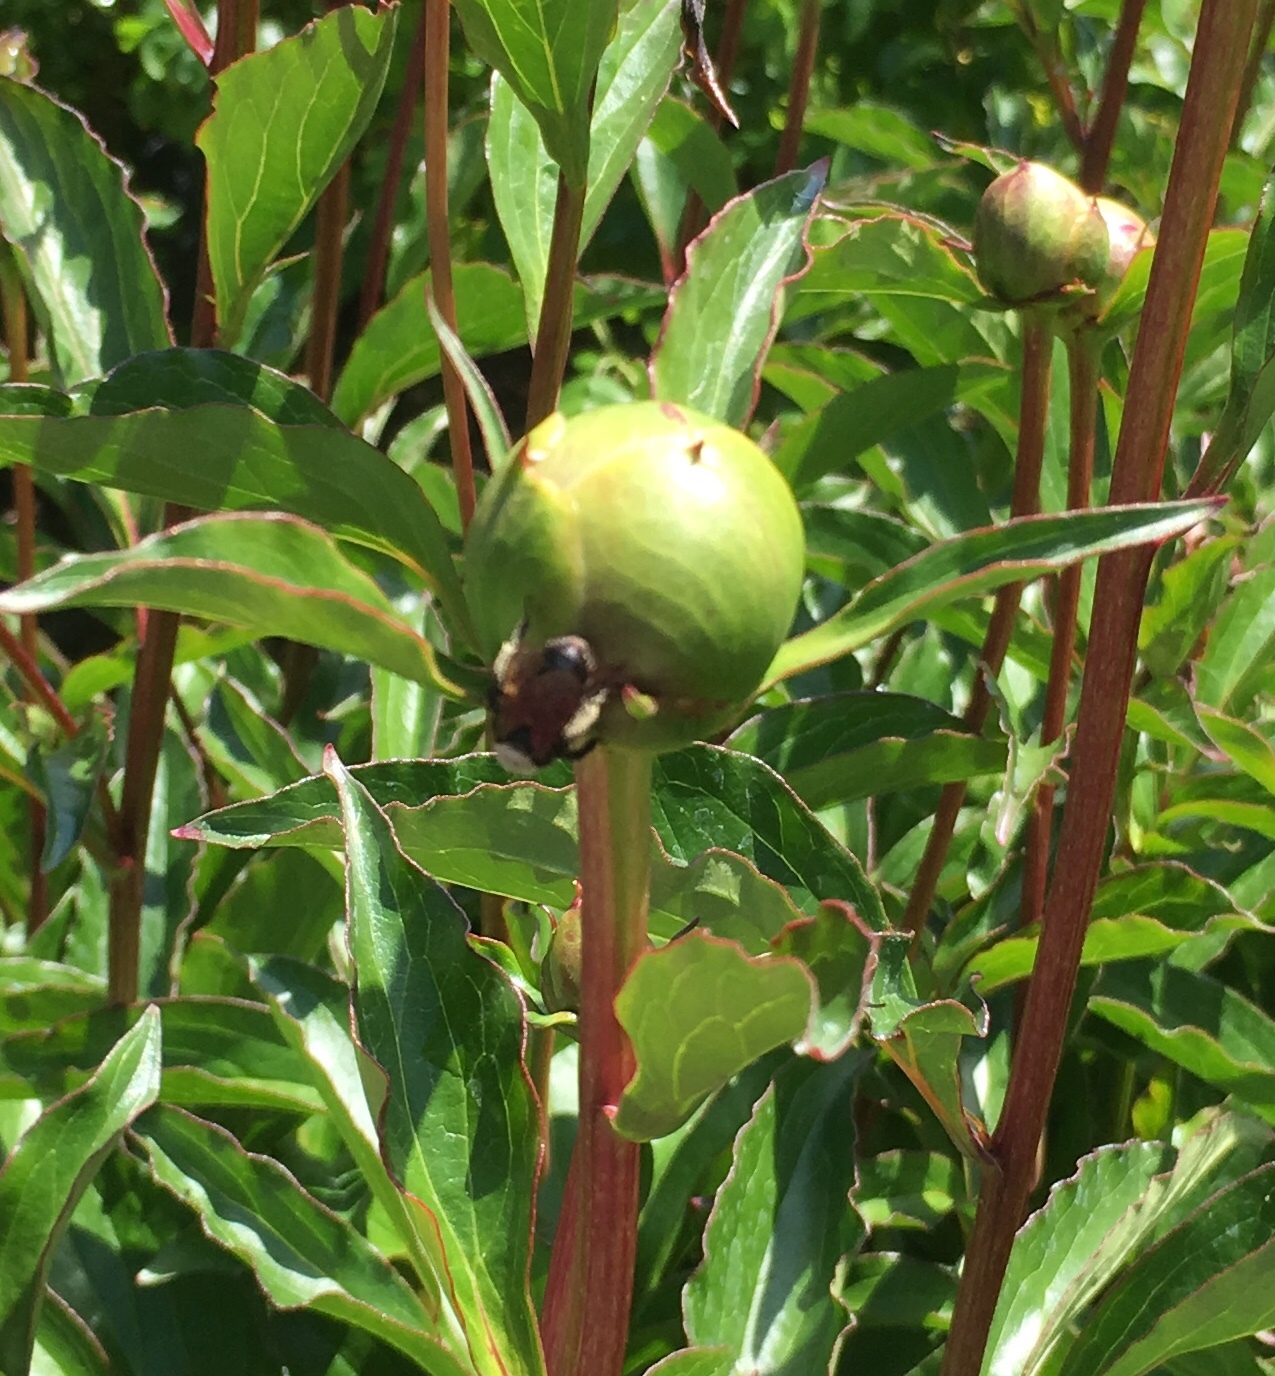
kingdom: Animalia
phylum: Arthropoda
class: Insecta
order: Hymenoptera
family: Apidae
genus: Bombus
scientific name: Bombus vancouverensis
